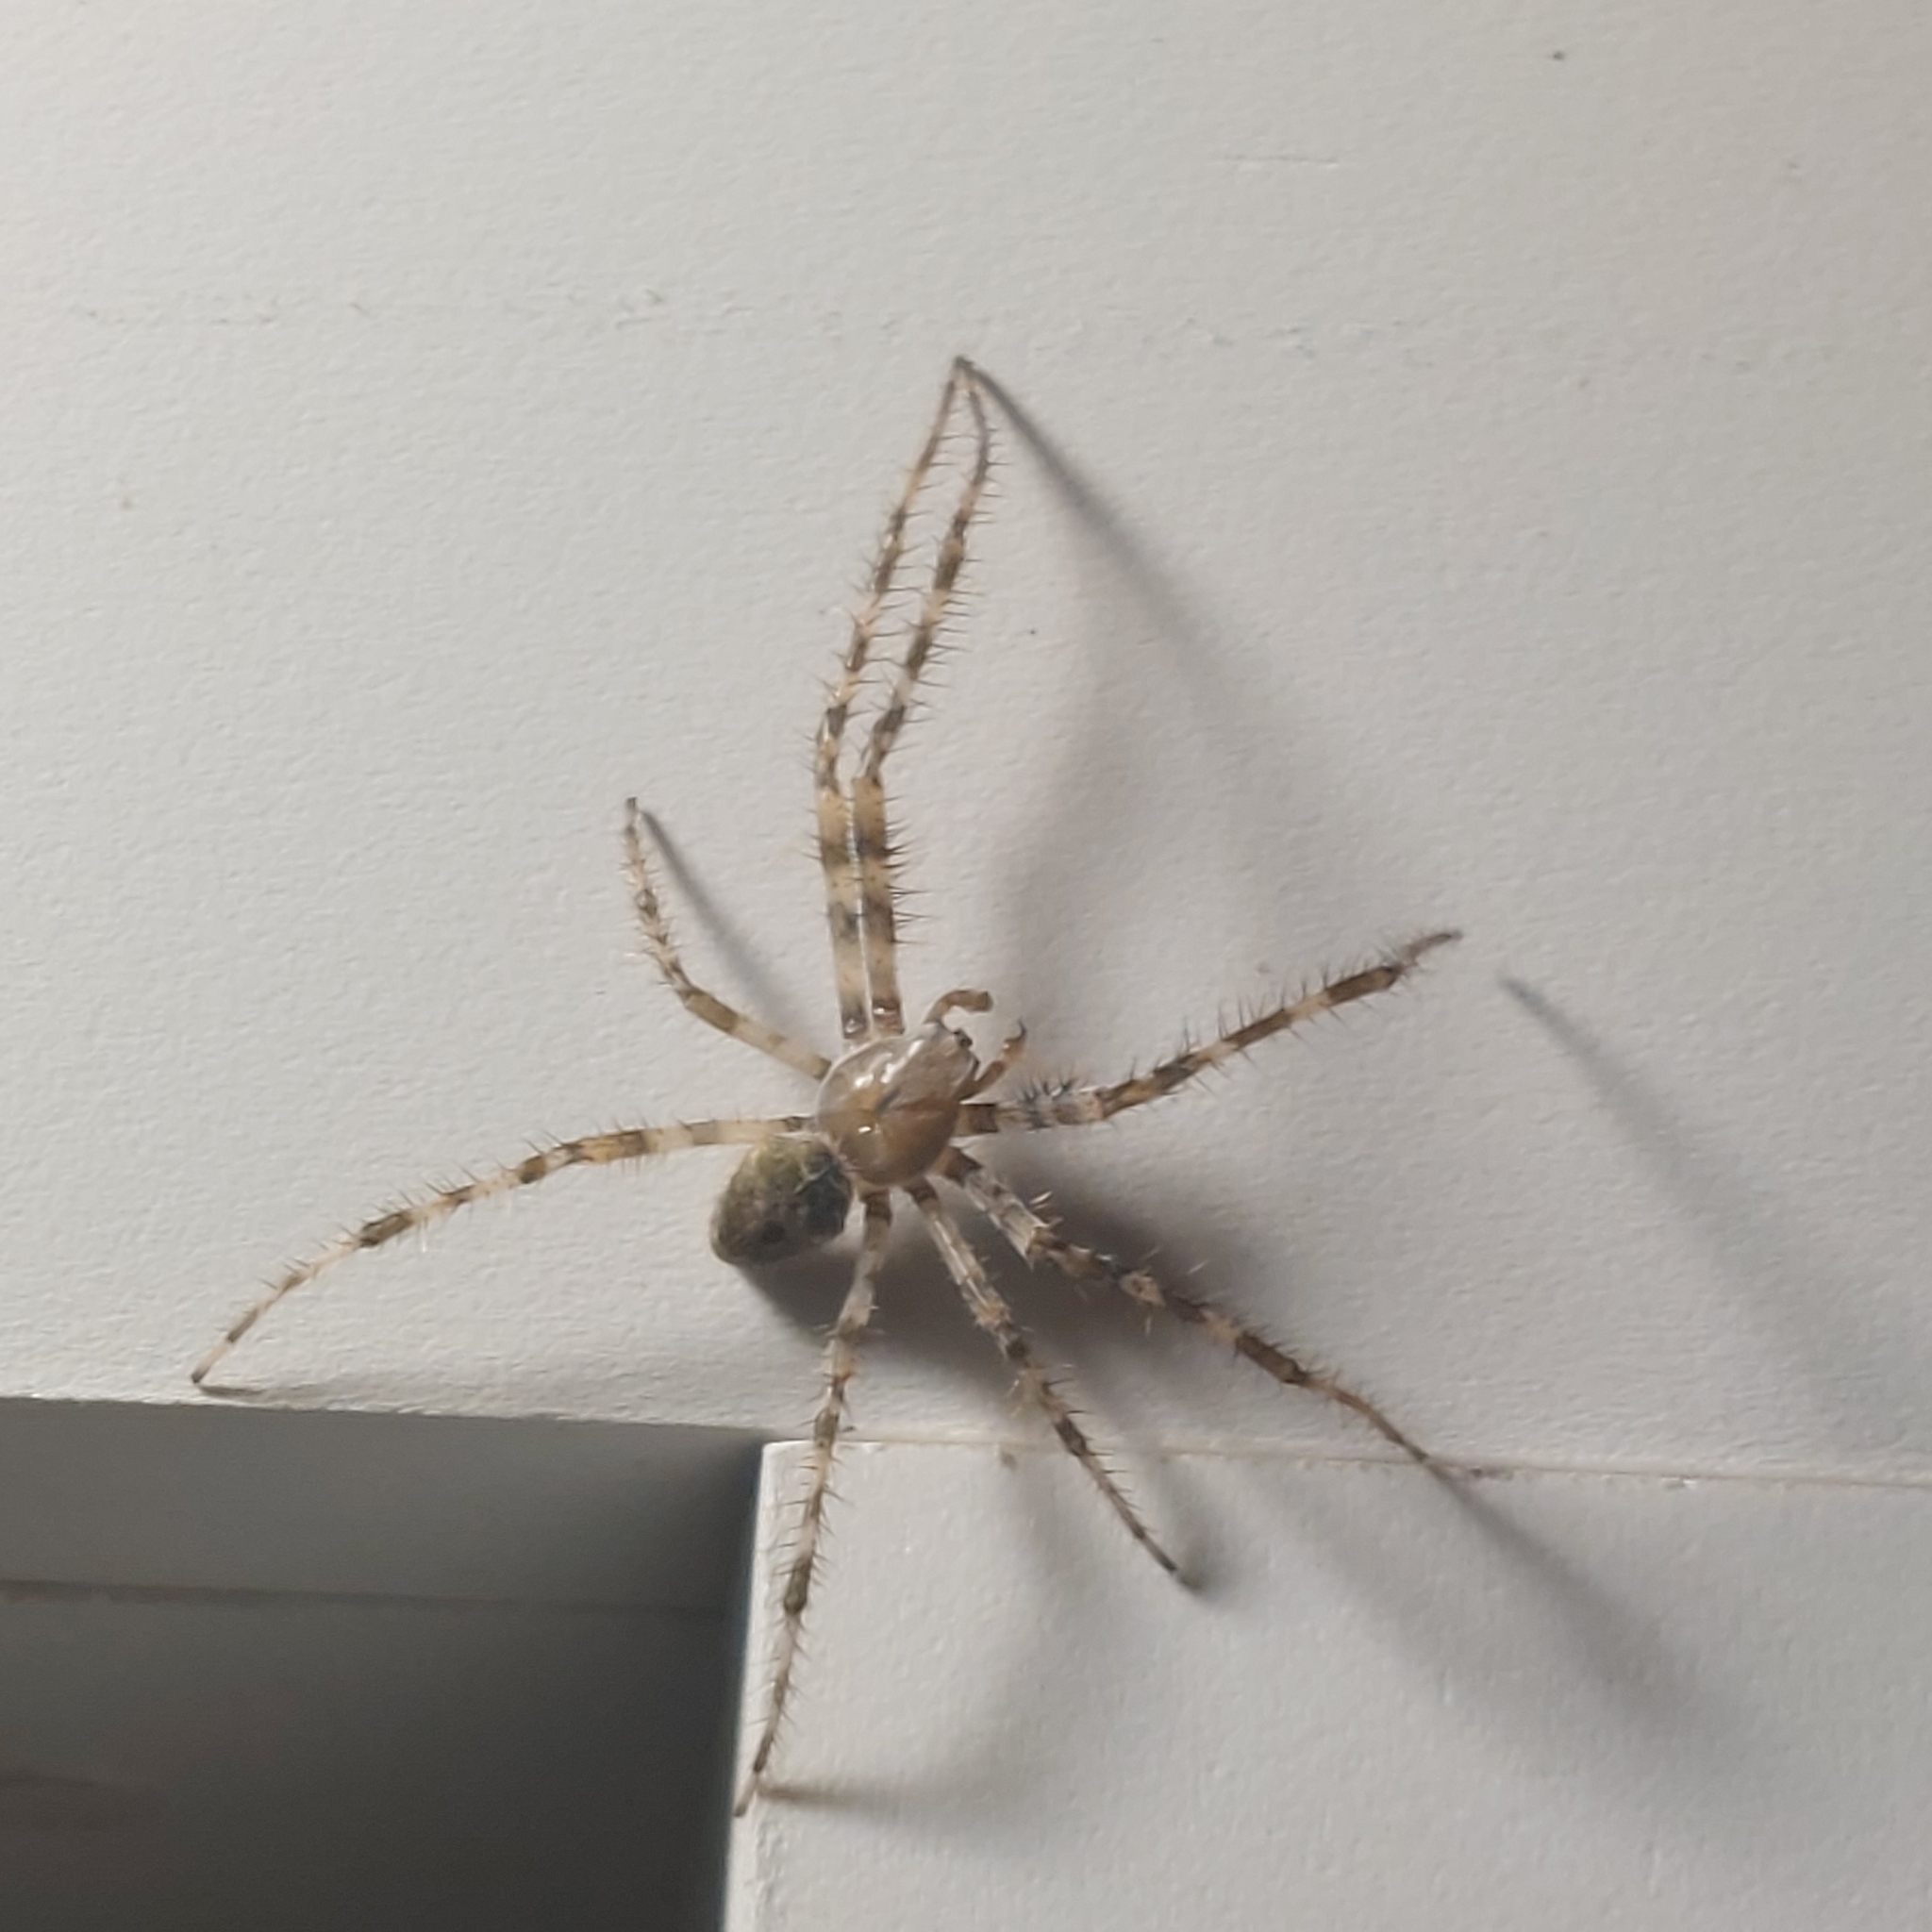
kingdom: Animalia
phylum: Arthropoda
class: Arachnida
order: Araneae
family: Araneidae
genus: Araneus
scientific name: Araneus cavaticus
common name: Barn orbweaver
